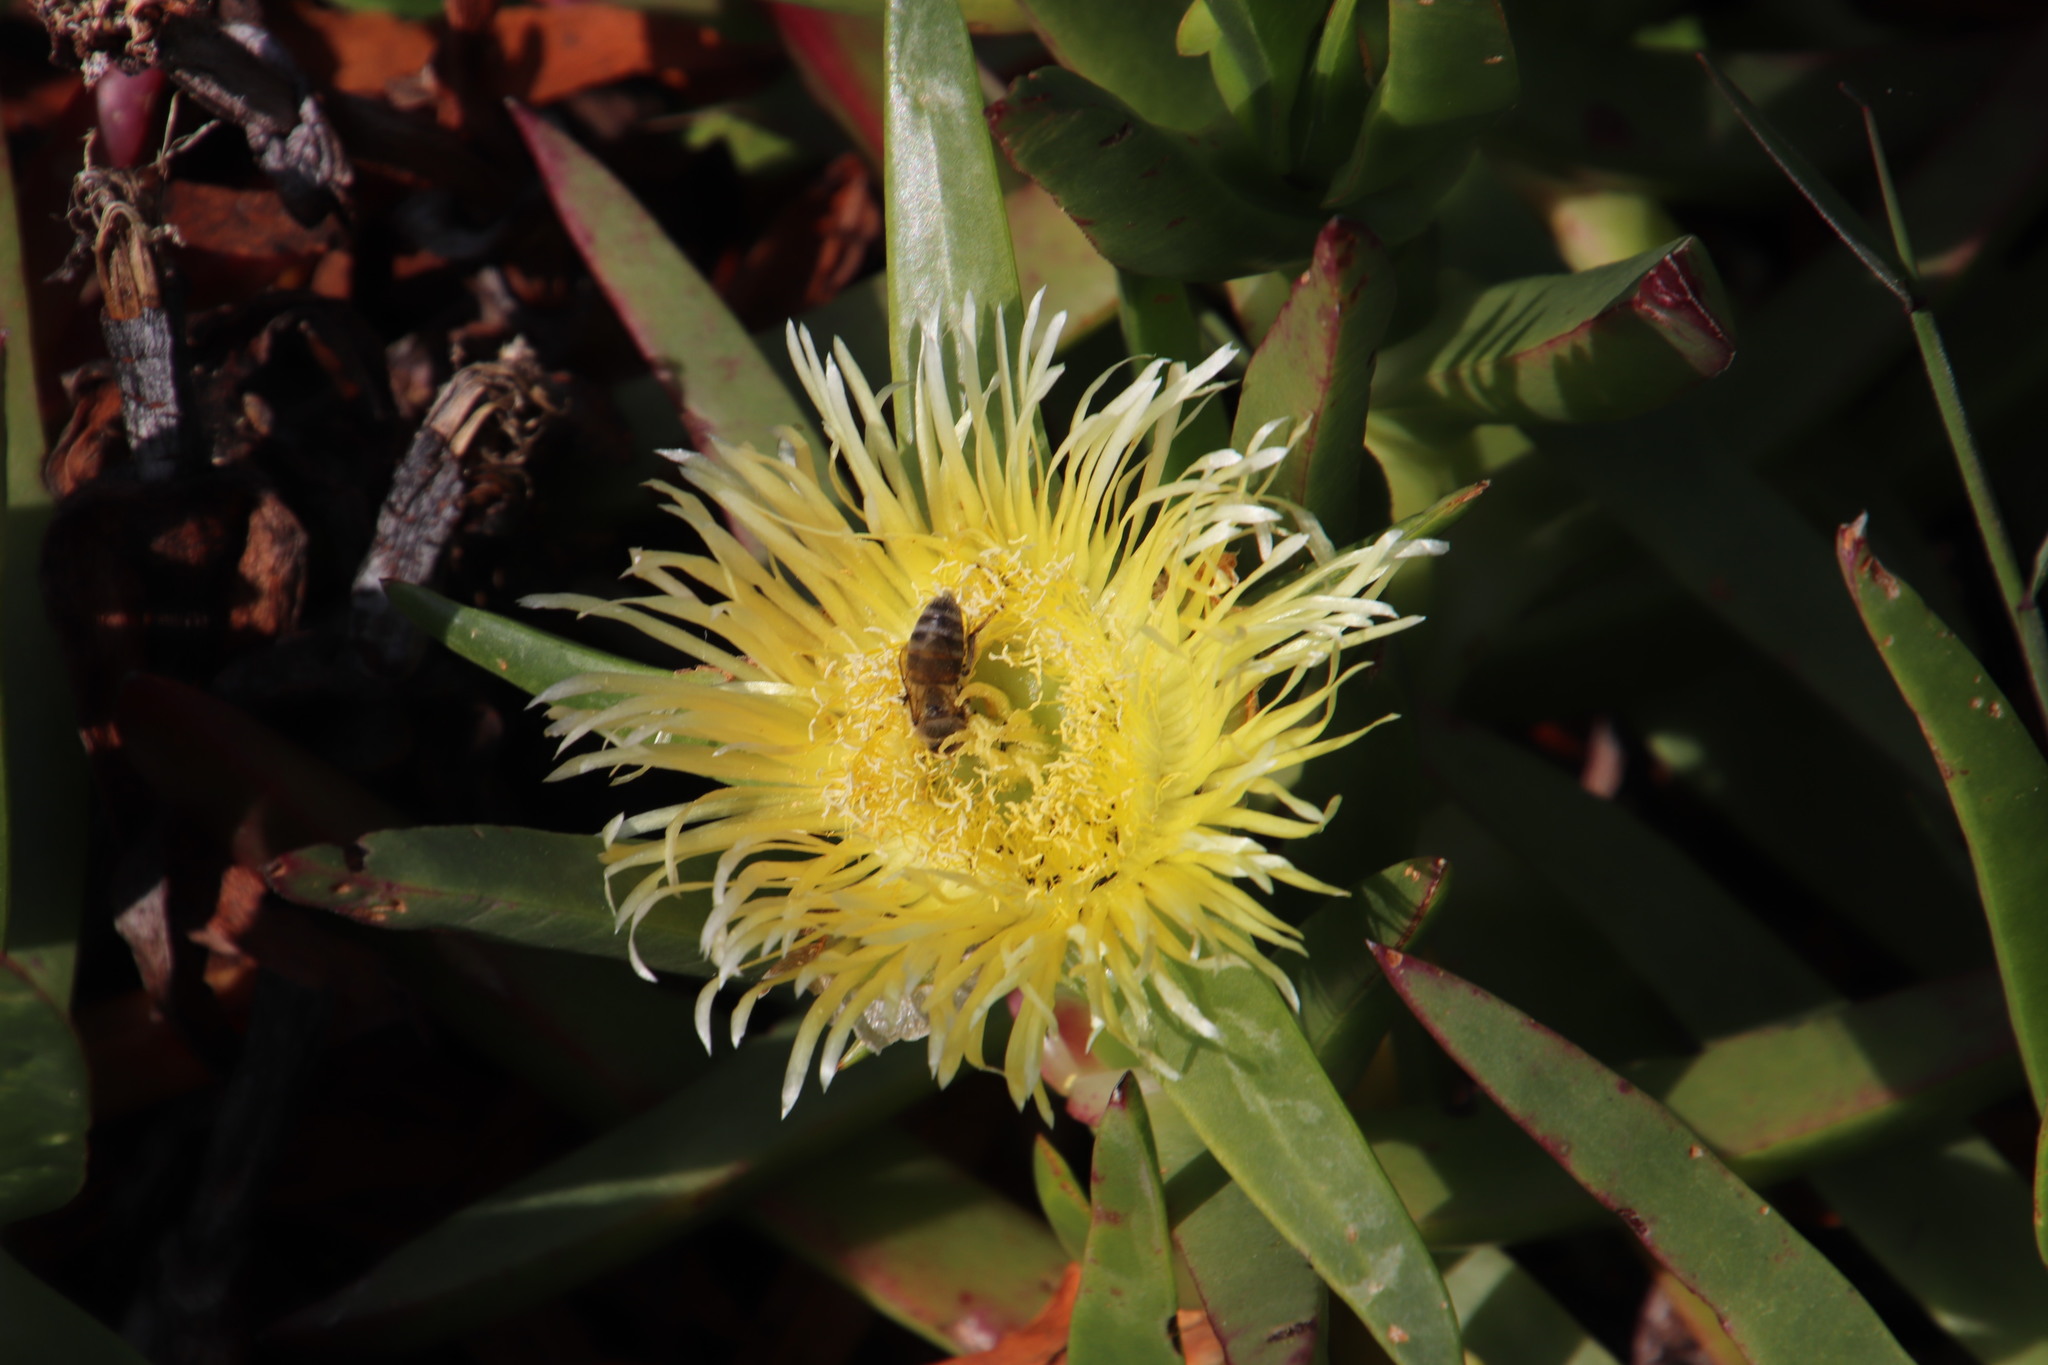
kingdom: Plantae
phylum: Tracheophyta
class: Magnoliopsida
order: Caryophyllales
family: Aizoaceae
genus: Carpobrotus
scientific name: Carpobrotus edulis
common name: Hottentot-fig
